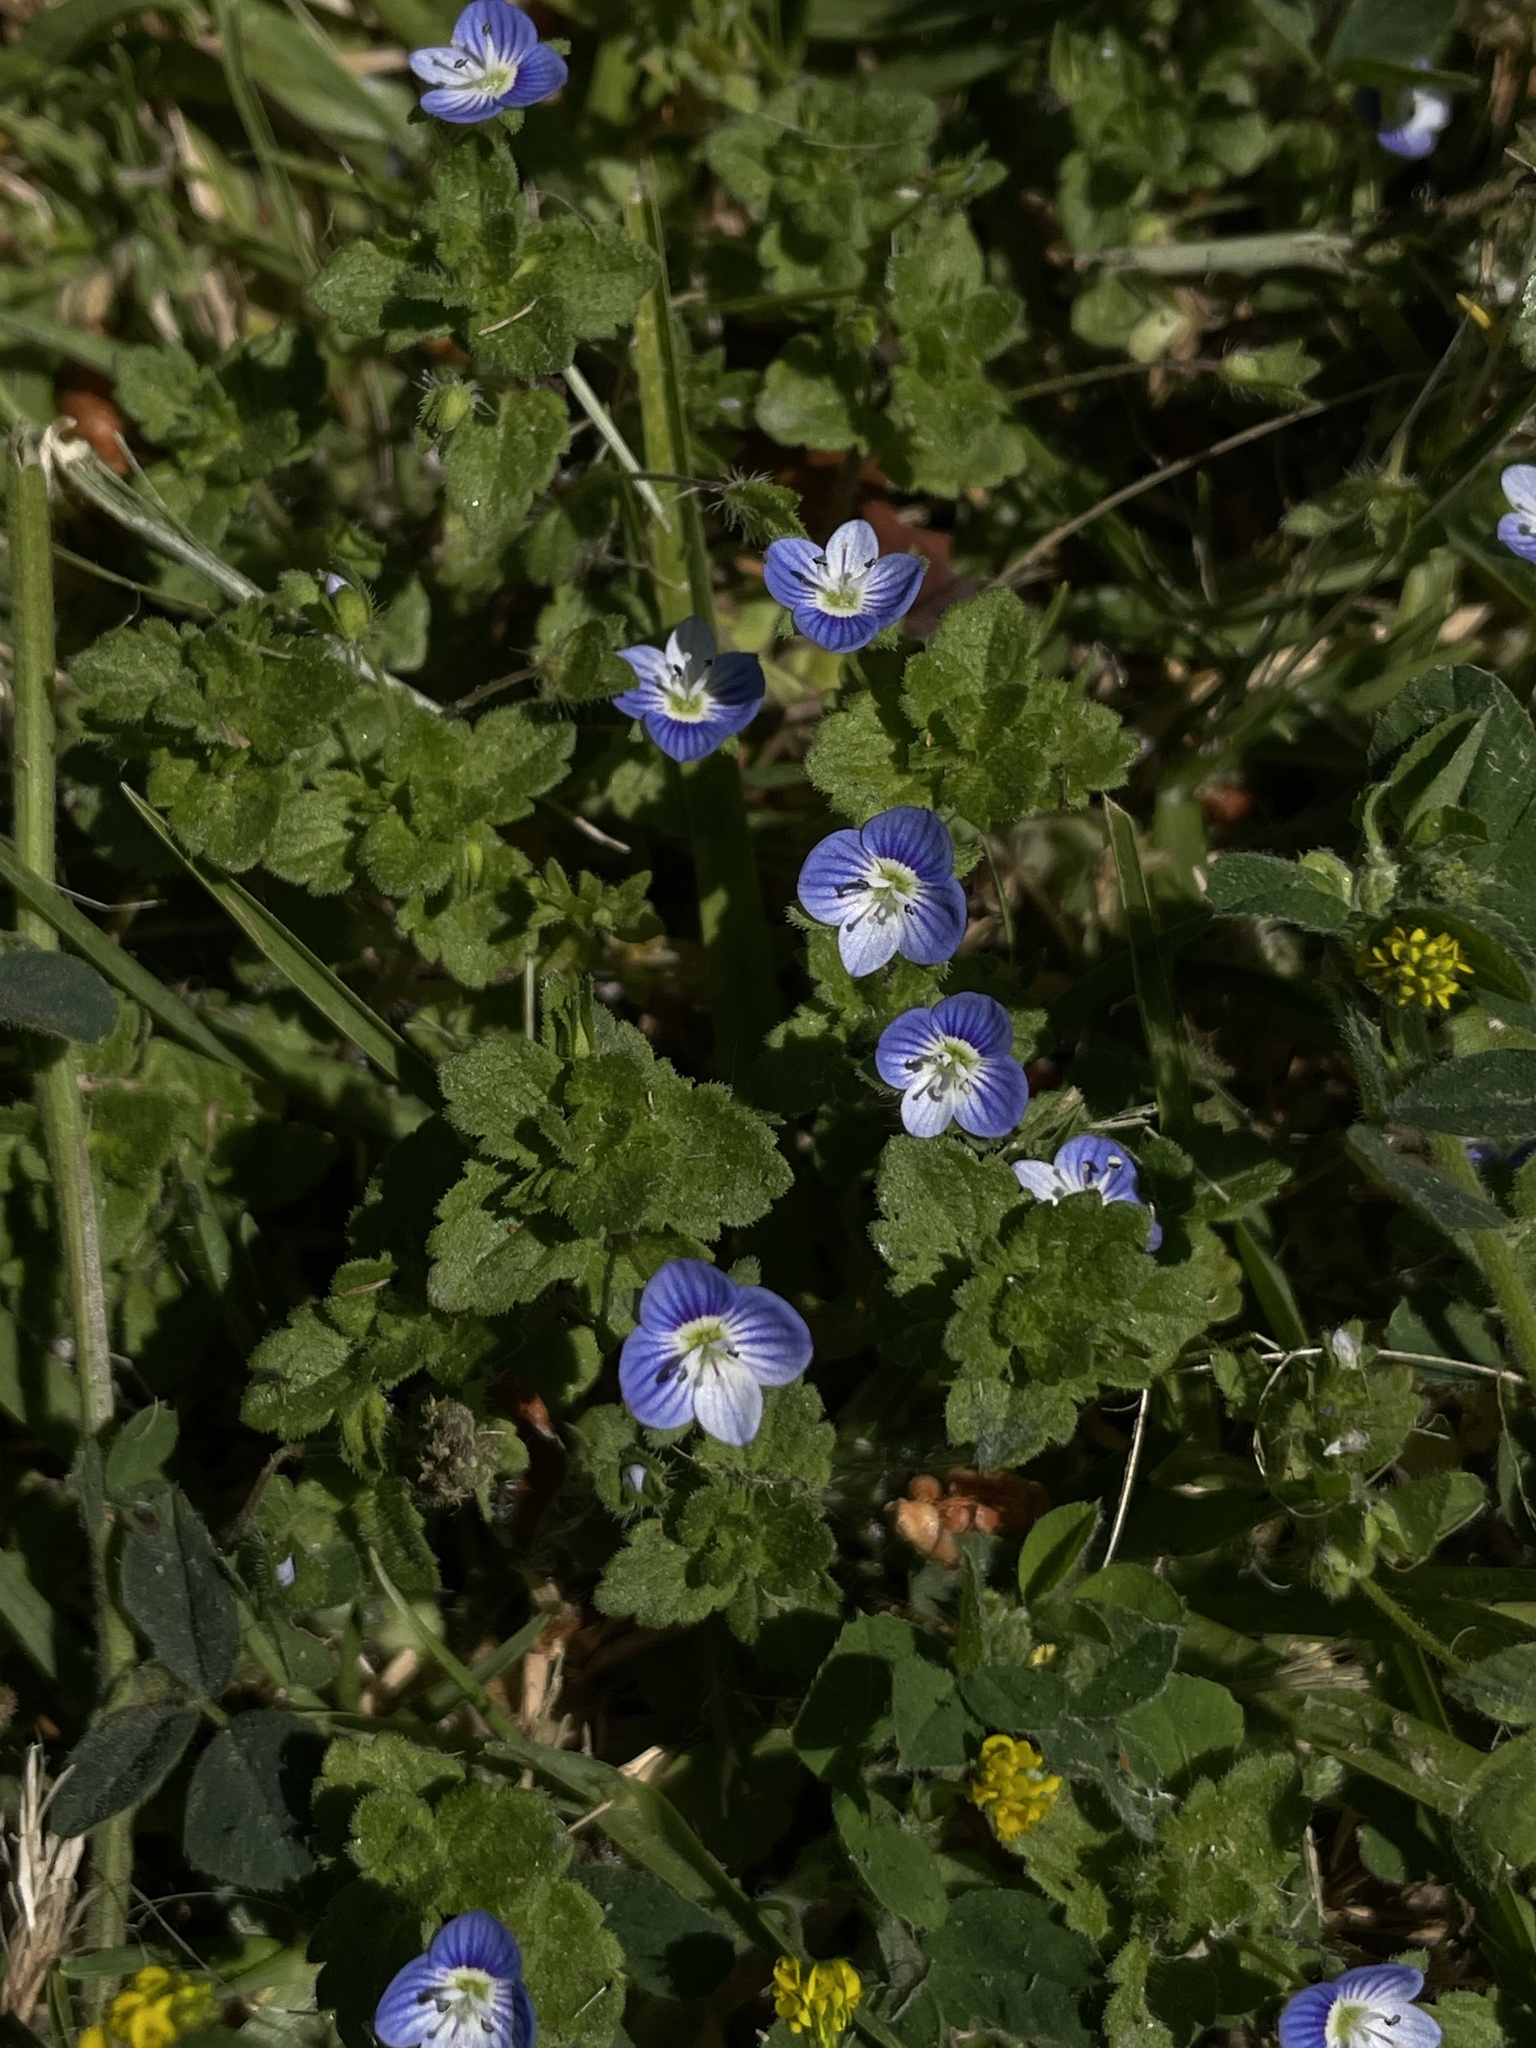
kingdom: Plantae
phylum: Tracheophyta
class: Magnoliopsida
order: Lamiales
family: Plantaginaceae
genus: Veronica
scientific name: Veronica persica
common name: Common field-speedwell
